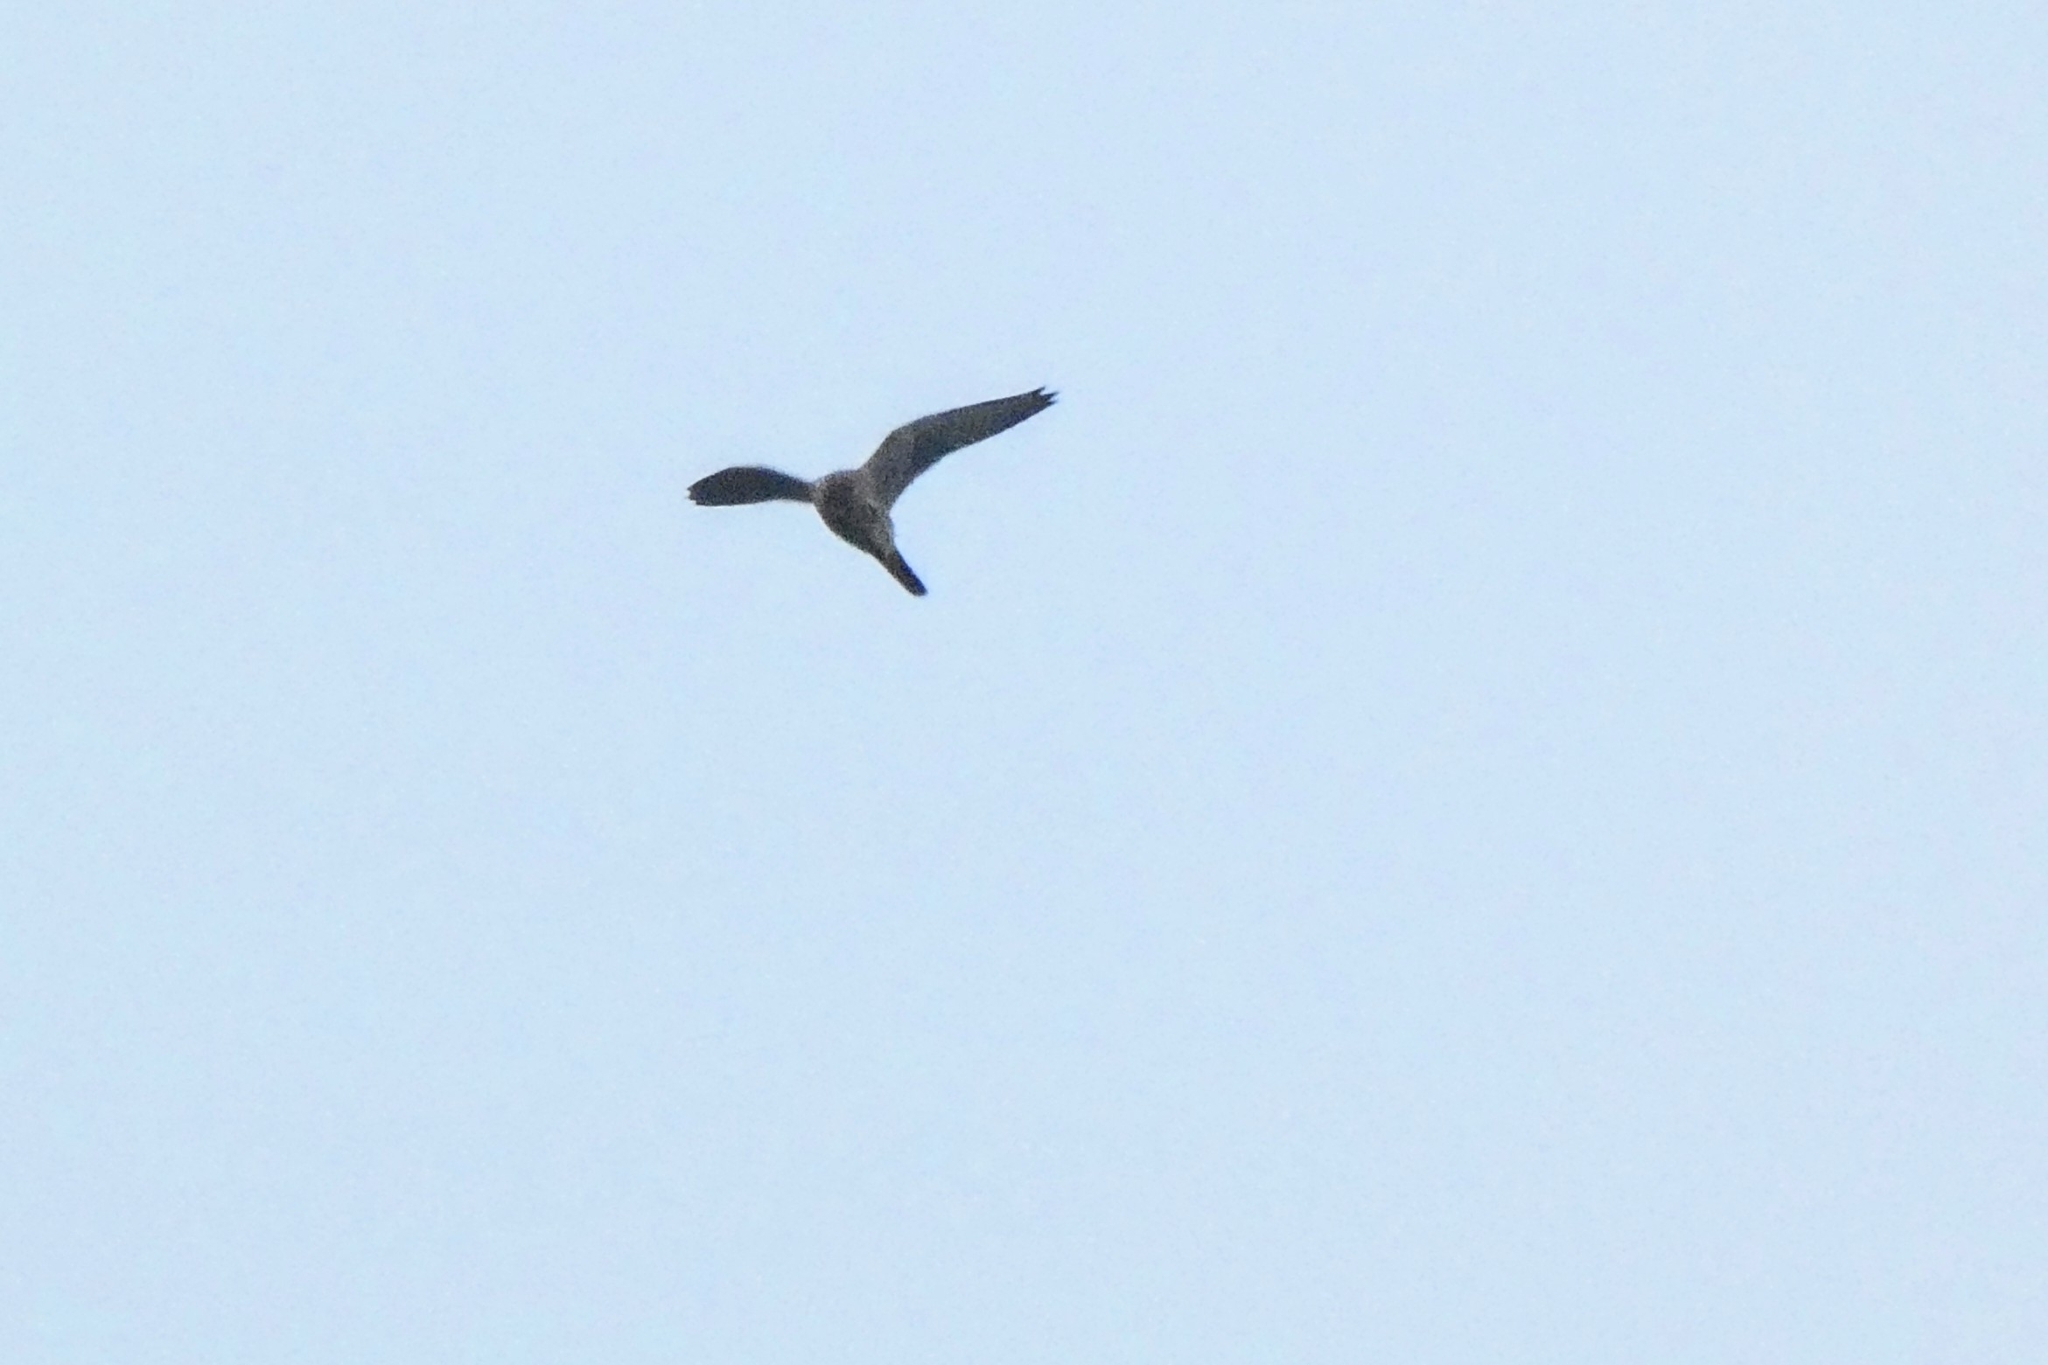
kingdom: Animalia
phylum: Chordata
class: Aves
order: Falconiformes
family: Falconidae
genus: Falco
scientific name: Falco tinnunculus
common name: Common kestrel
